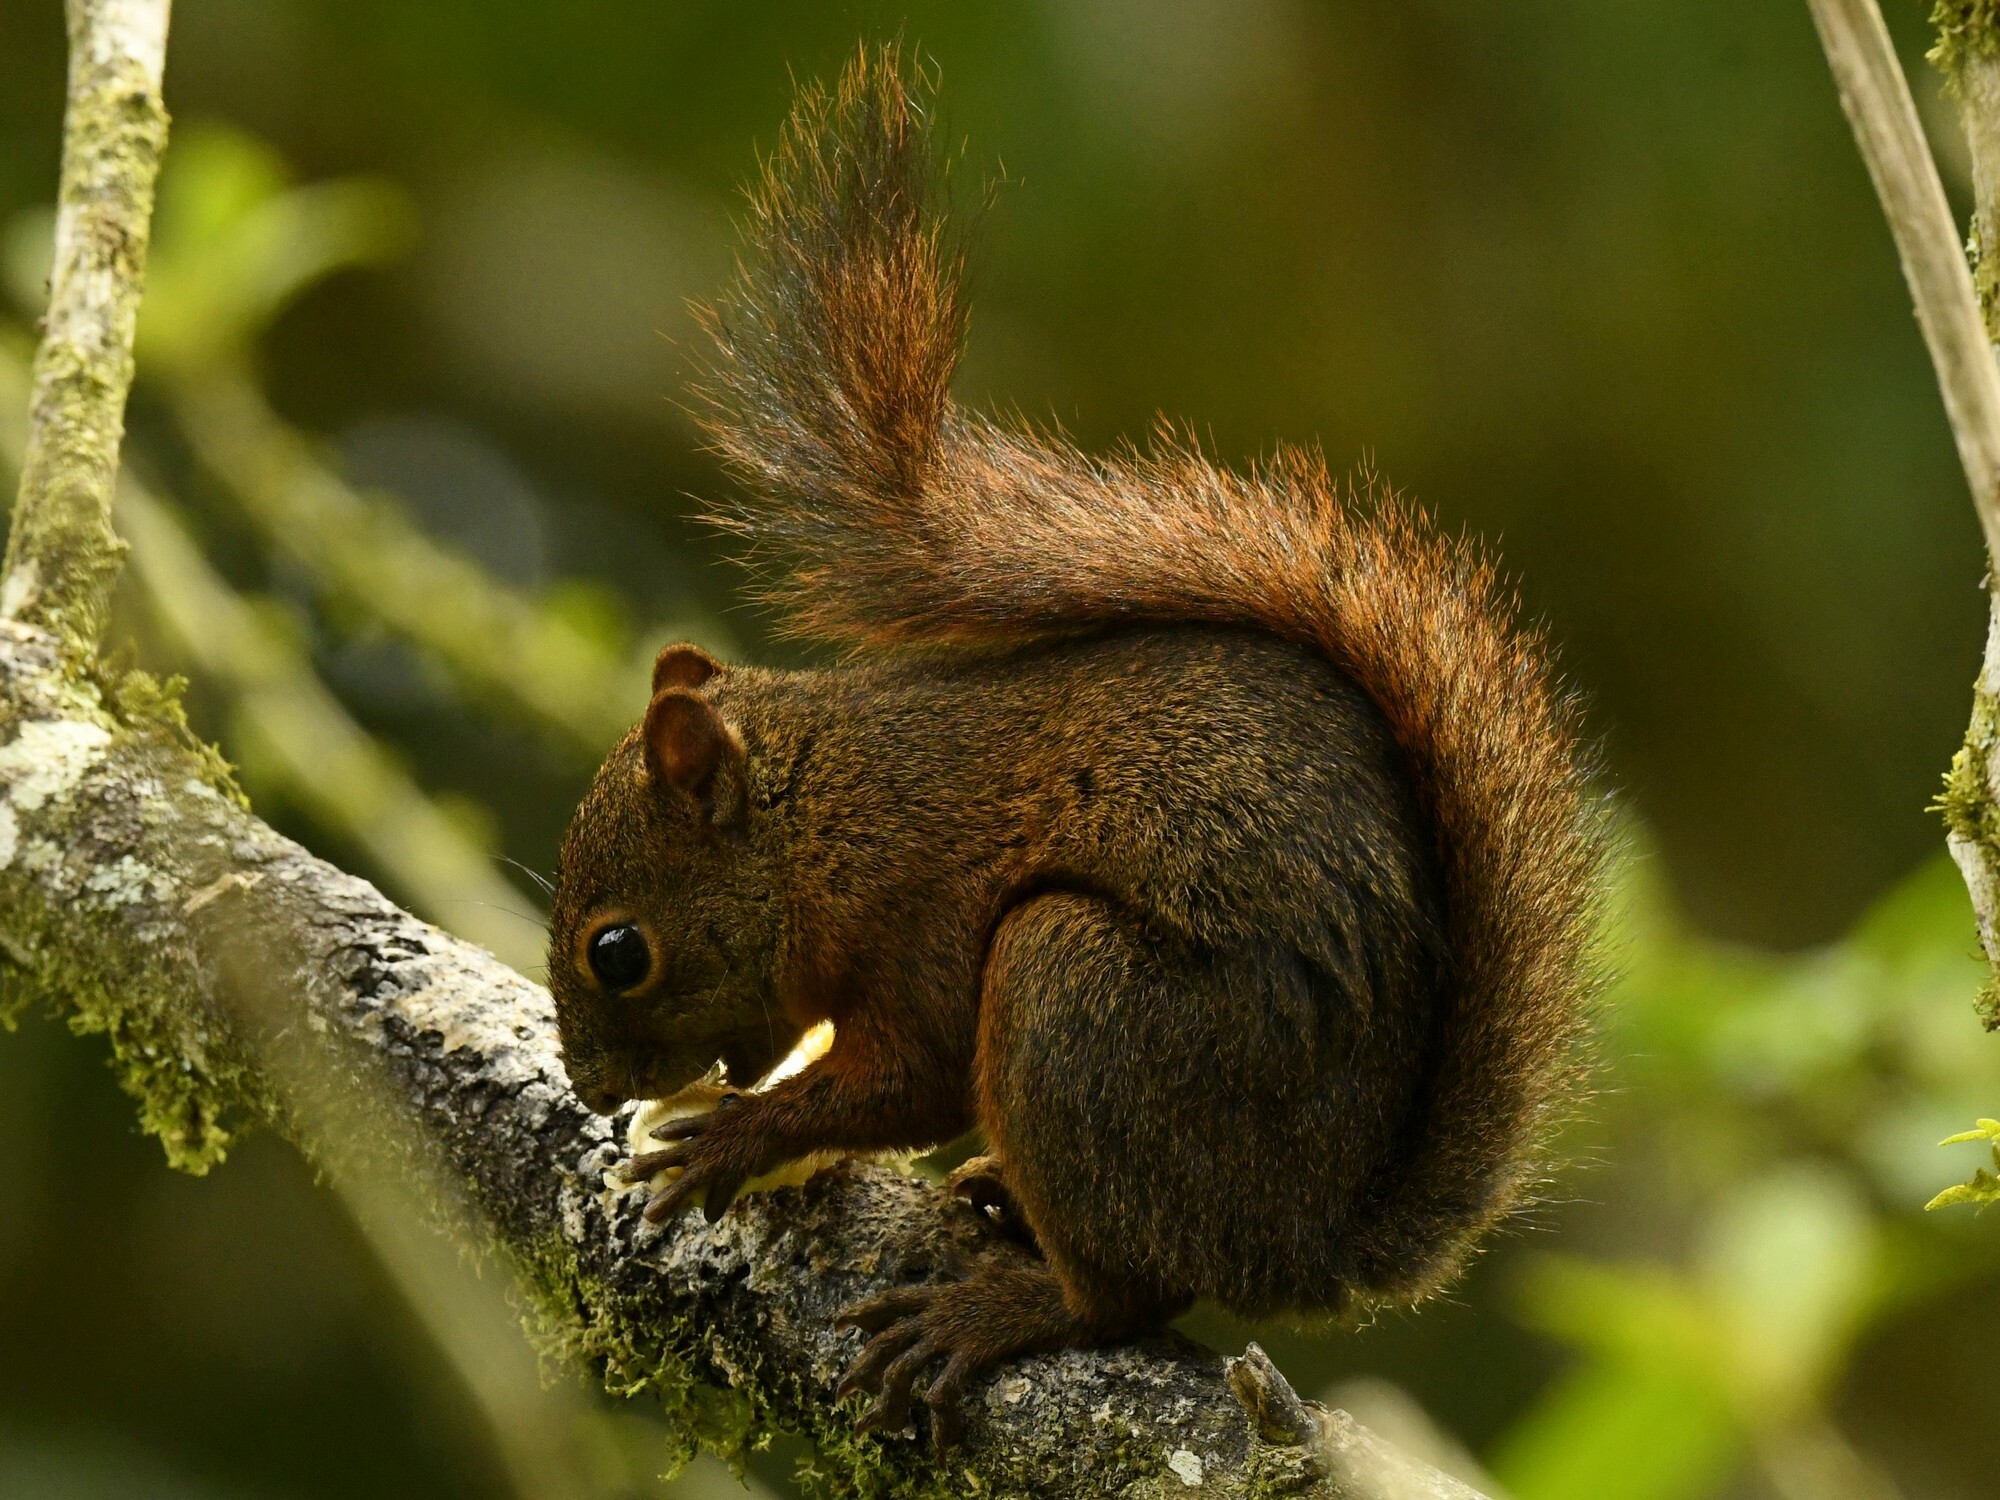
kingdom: Animalia
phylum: Chordata
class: Mammalia
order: Rodentia
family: Sciuridae
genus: Sciurus
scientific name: Sciurus granatensis
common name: Red-tailed squirrel
